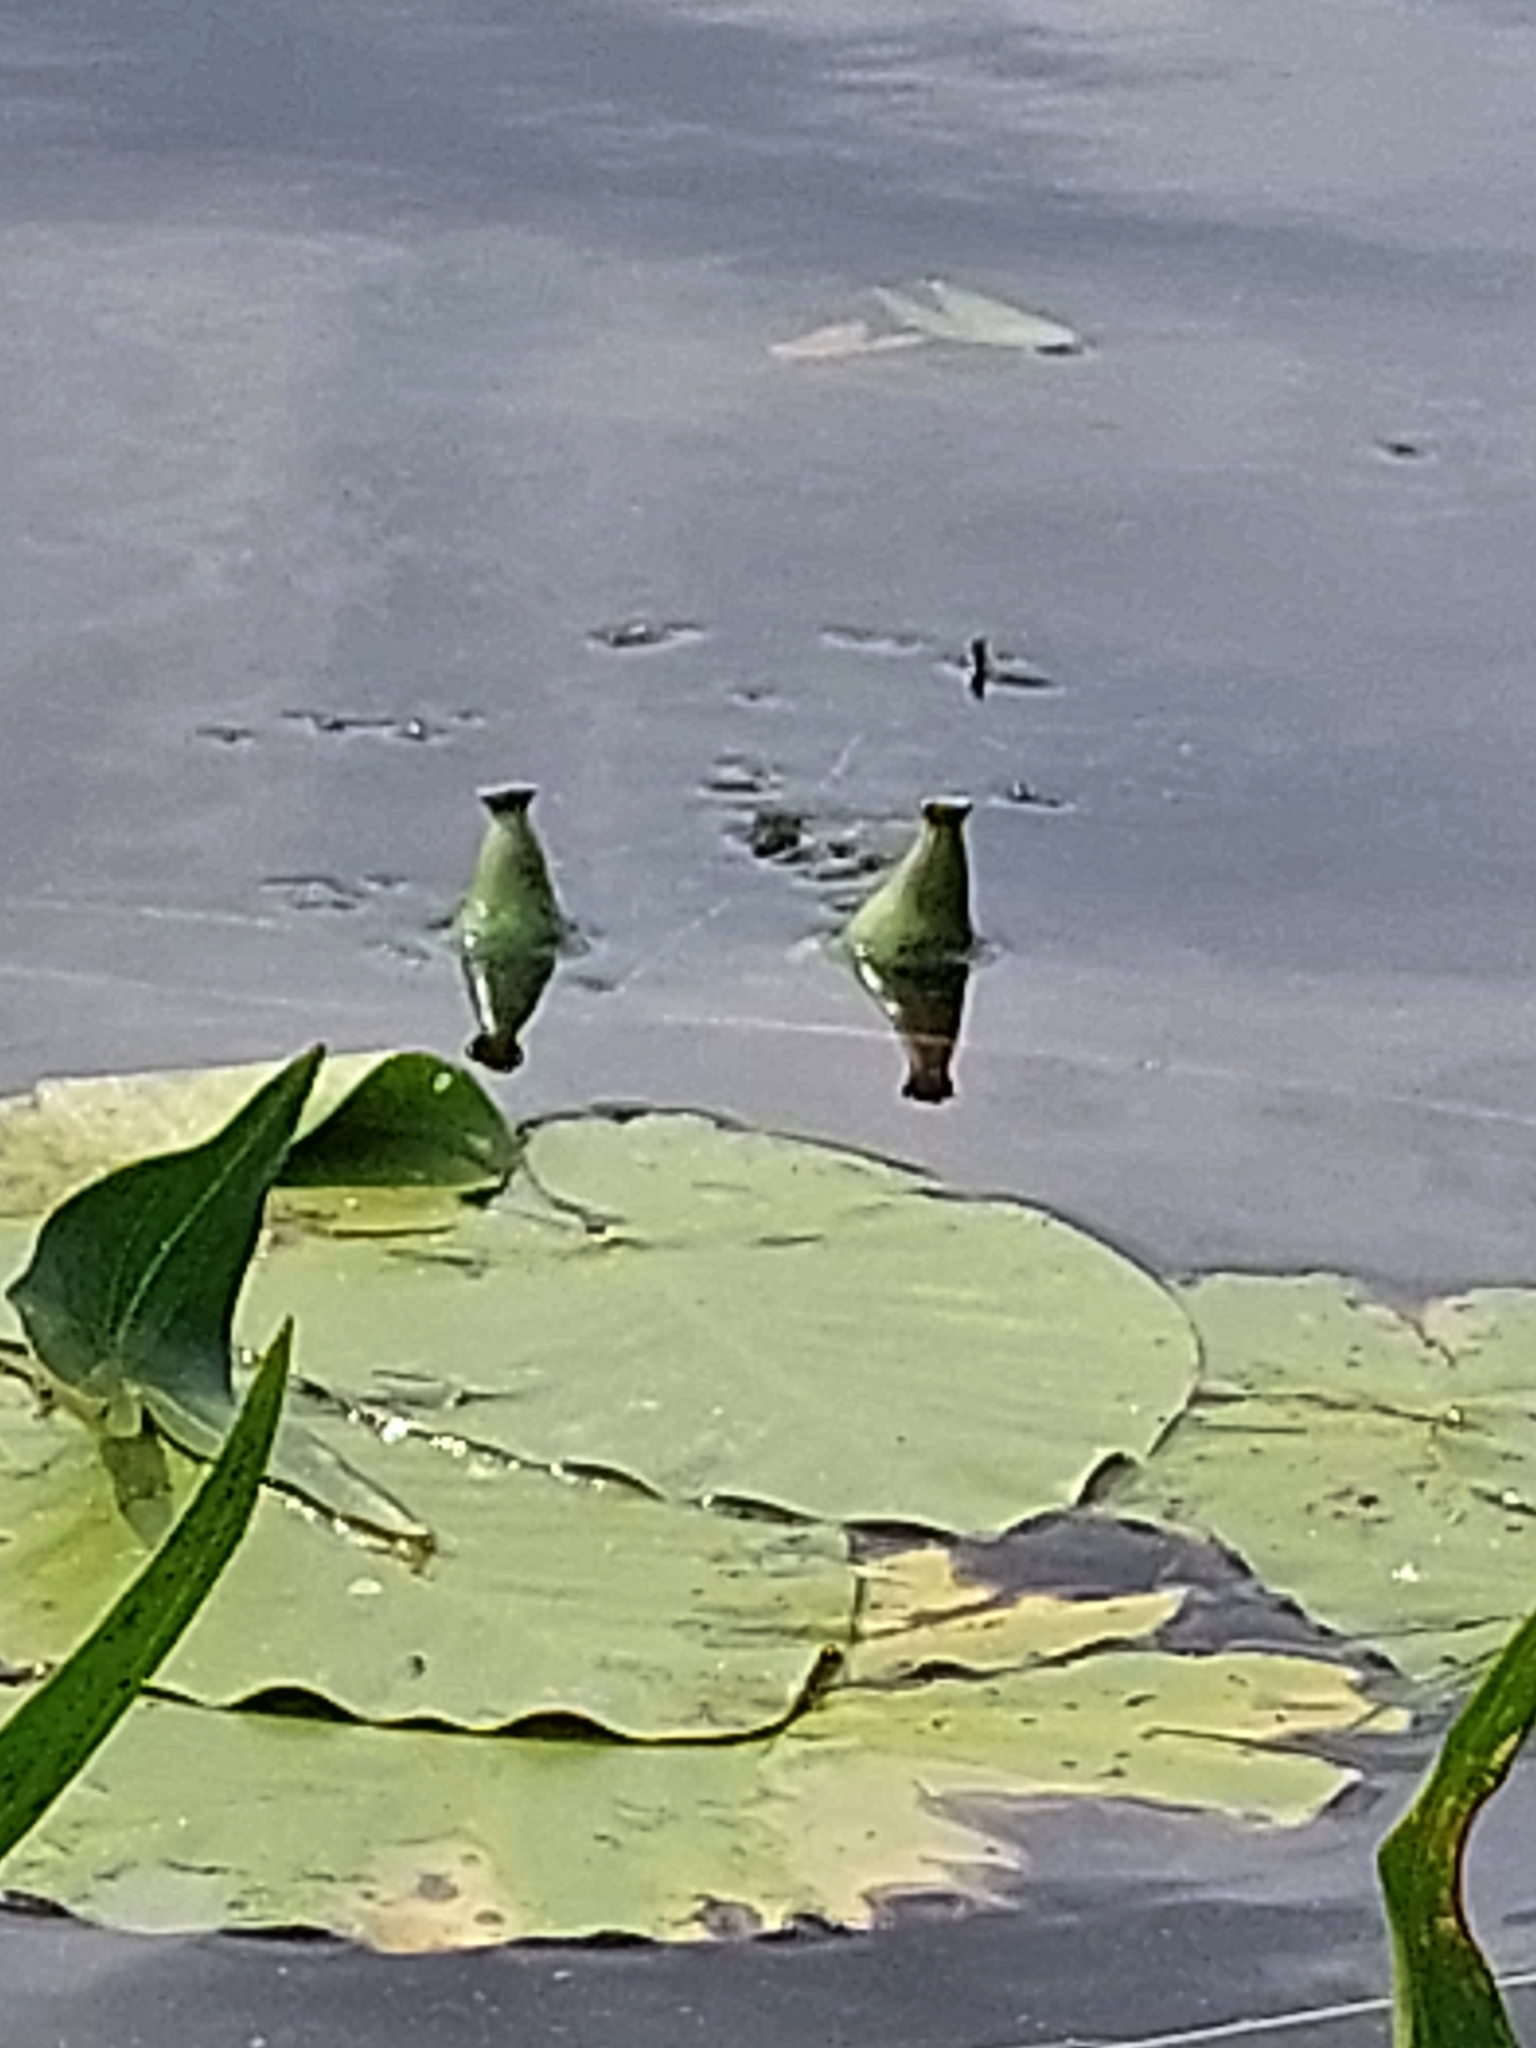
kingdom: Plantae
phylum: Tracheophyta
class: Magnoliopsida
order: Nymphaeales
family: Nymphaeaceae
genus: Nuphar
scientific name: Nuphar lutea
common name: Yellow water-lily
